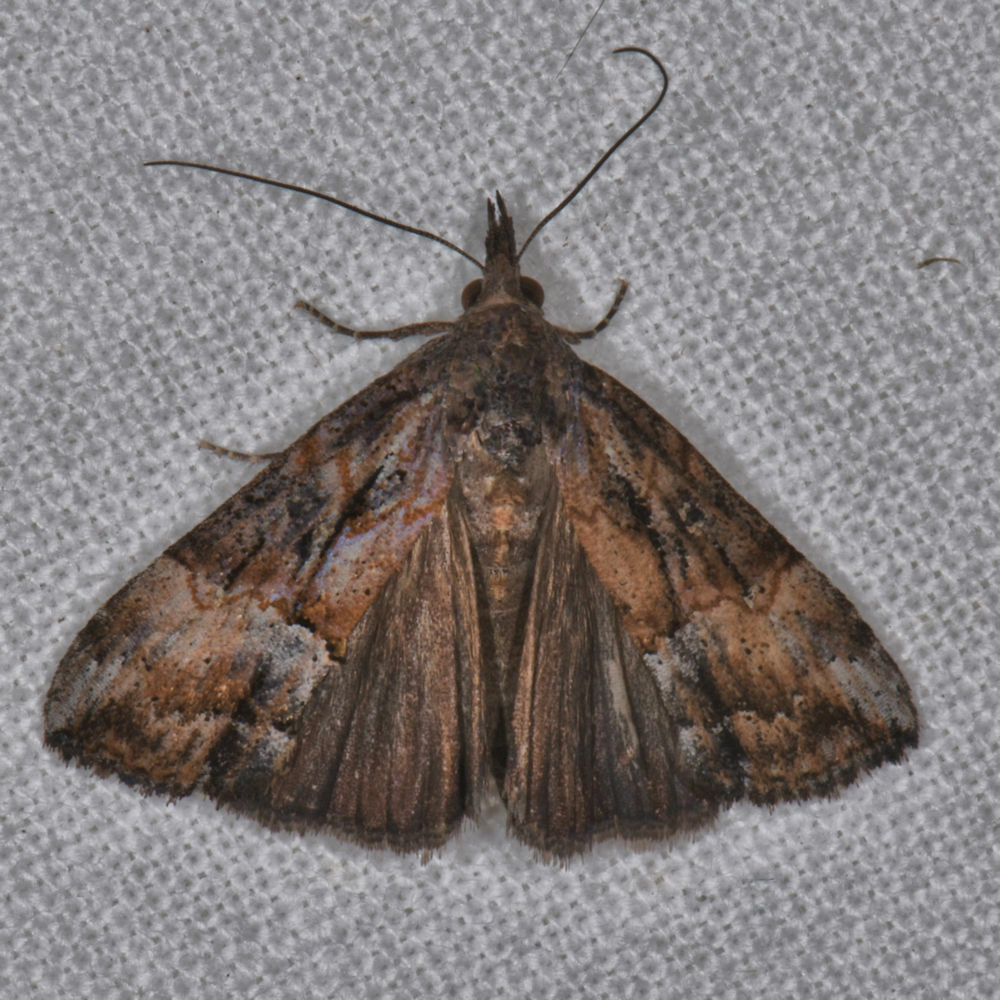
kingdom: Animalia
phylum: Arthropoda
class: Insecta
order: Lepidoptera
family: Erebidae
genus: Hypena
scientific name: Hypena scabra
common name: Green cloverworm
